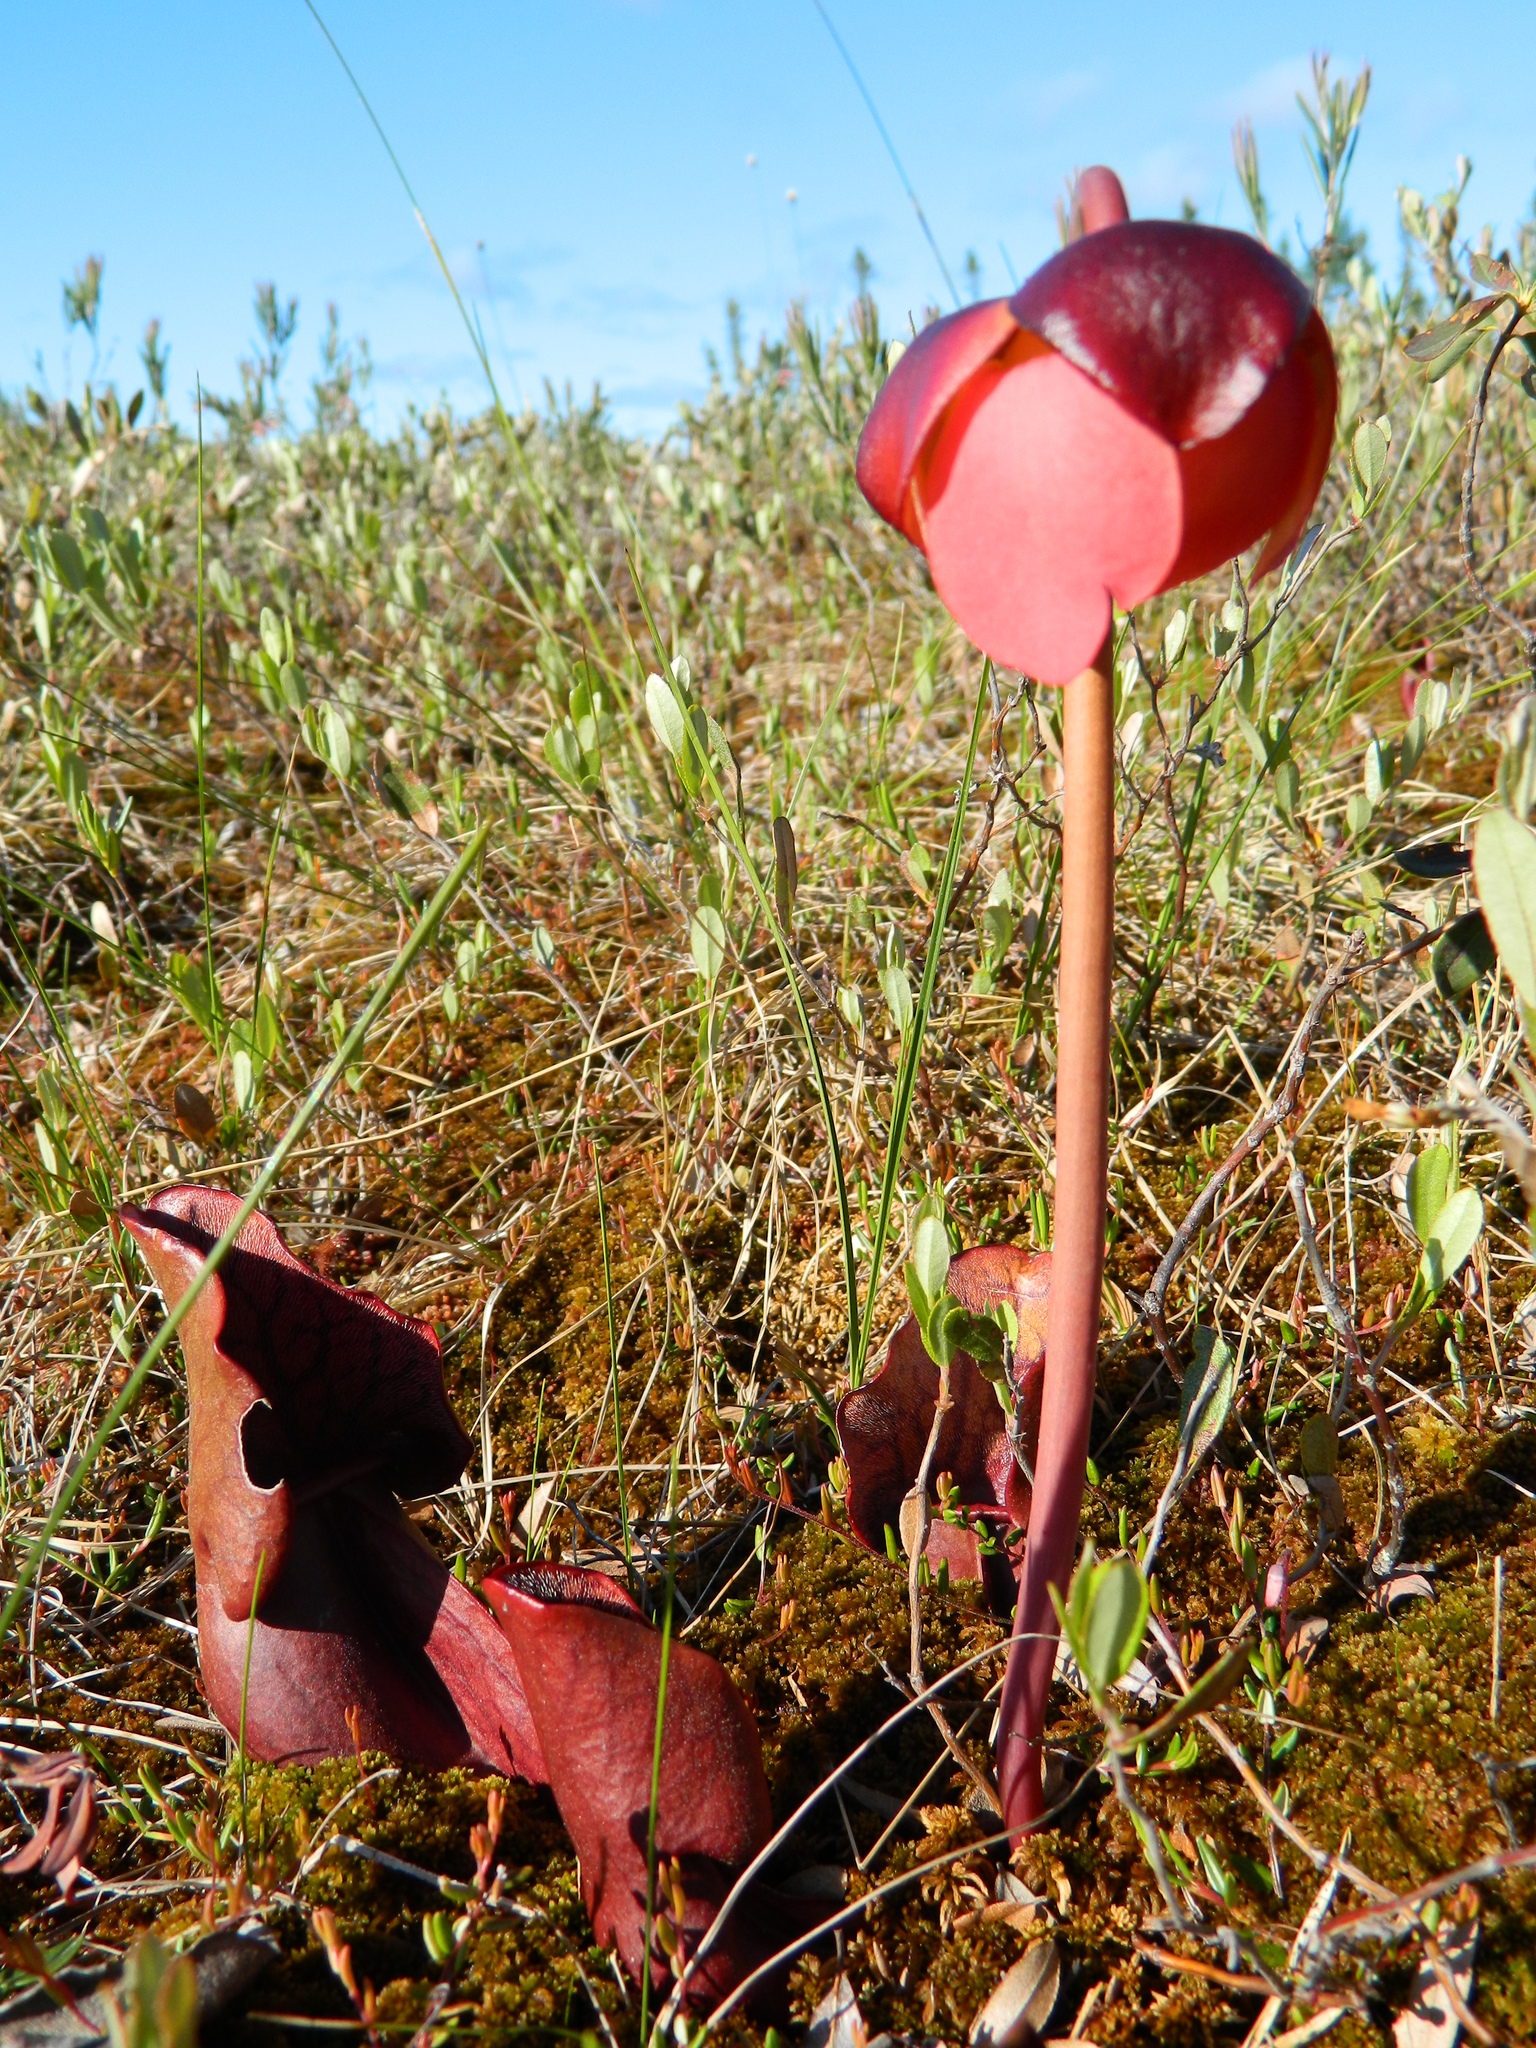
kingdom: Plantae
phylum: Tracheophyta
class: Magnoliopsida
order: Ericales
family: Sarraceniaceae
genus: Sarracenia
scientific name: Sarracenia purpurea
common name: Pitcherplant
